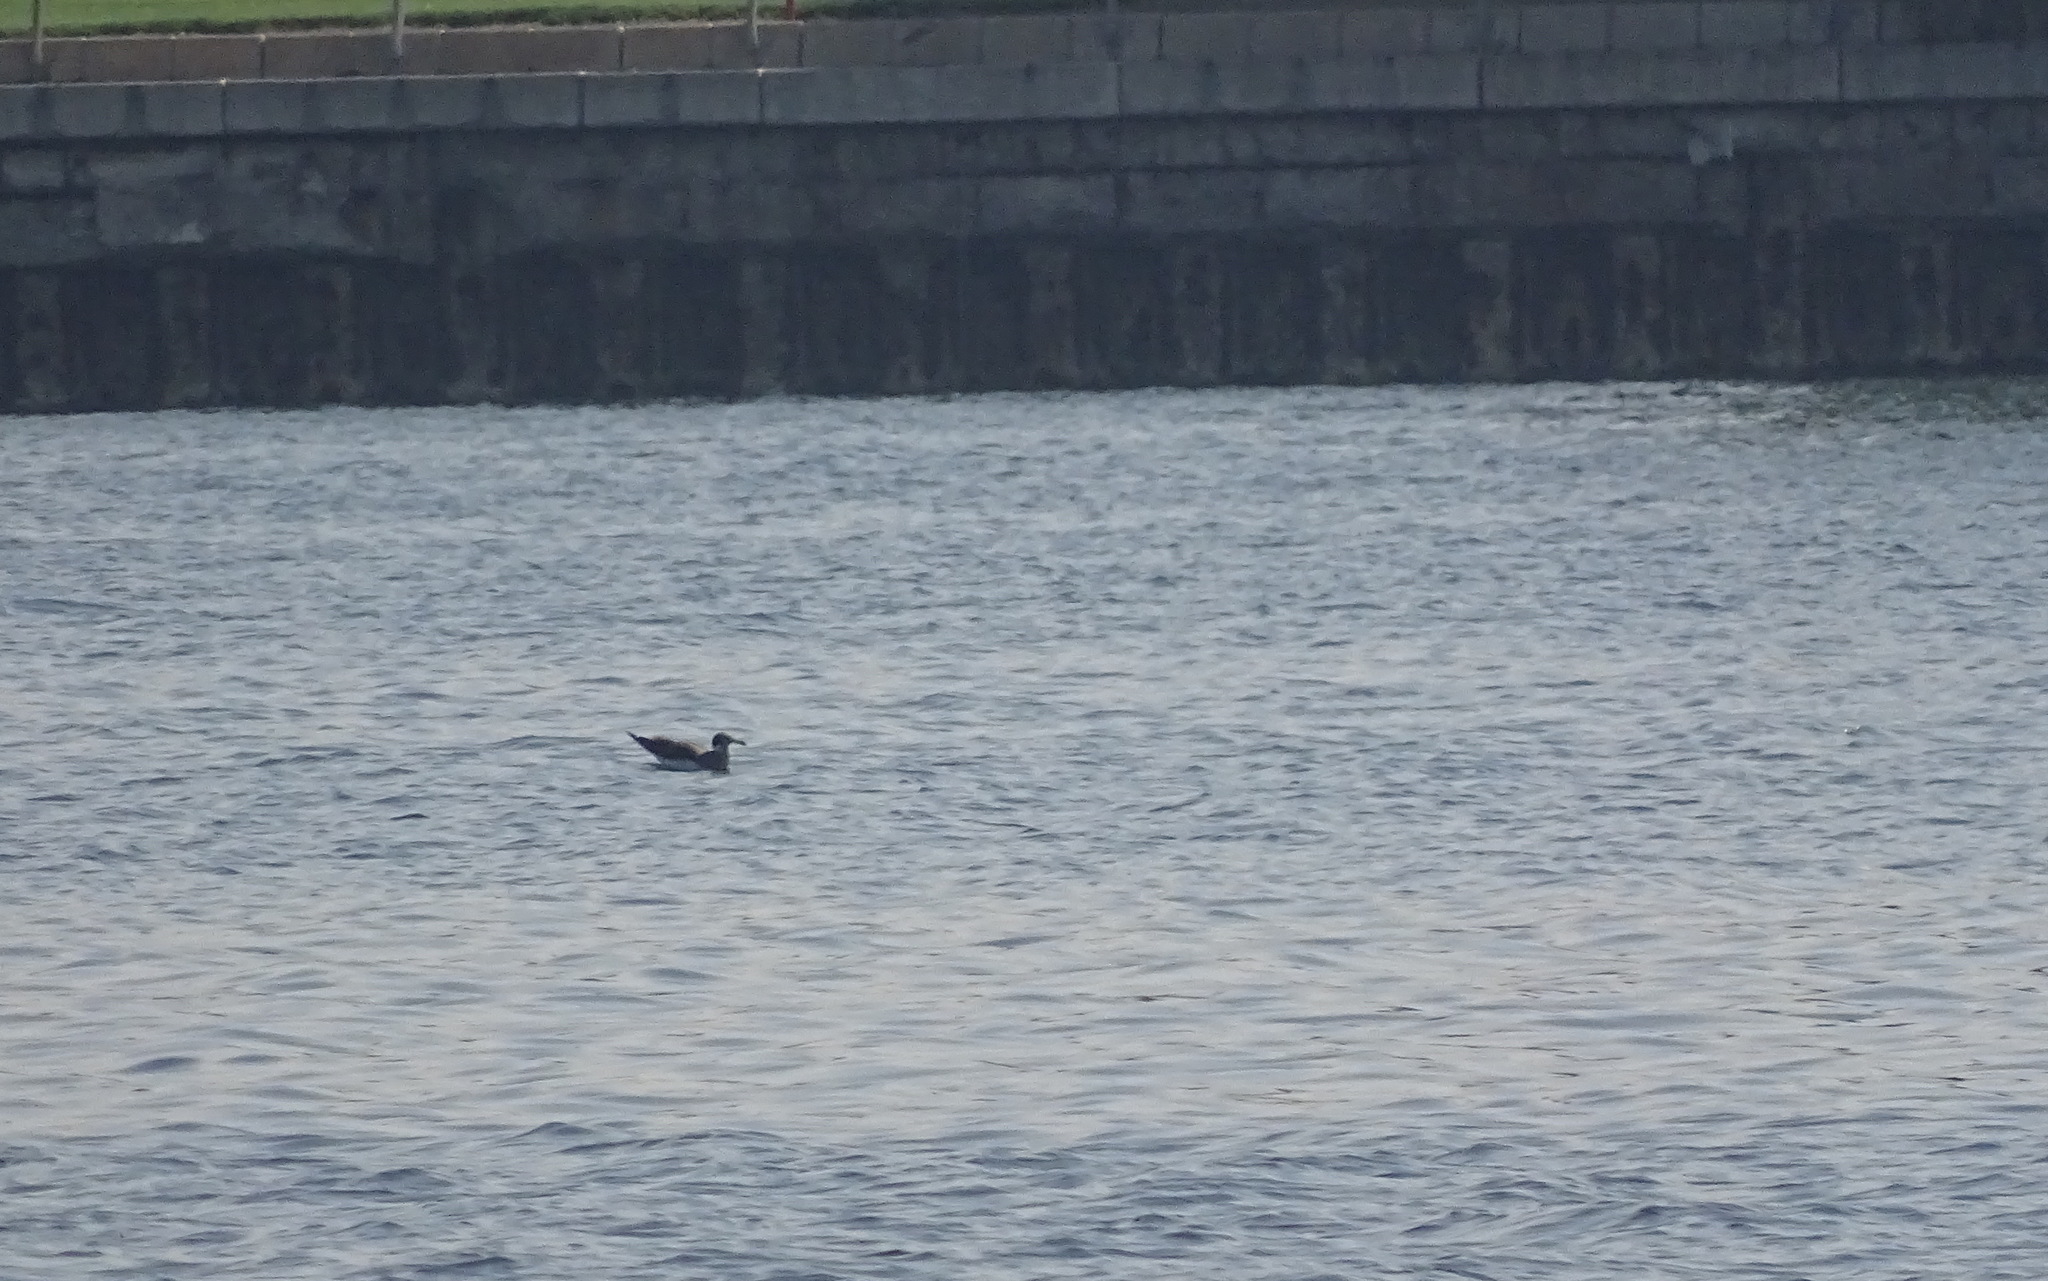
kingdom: Animalia
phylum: Chordata
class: Aves
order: Charadriiformes
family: Laridae
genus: Ichthyaetus
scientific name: Ichthyaetus hemprichii
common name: Sooty gull
